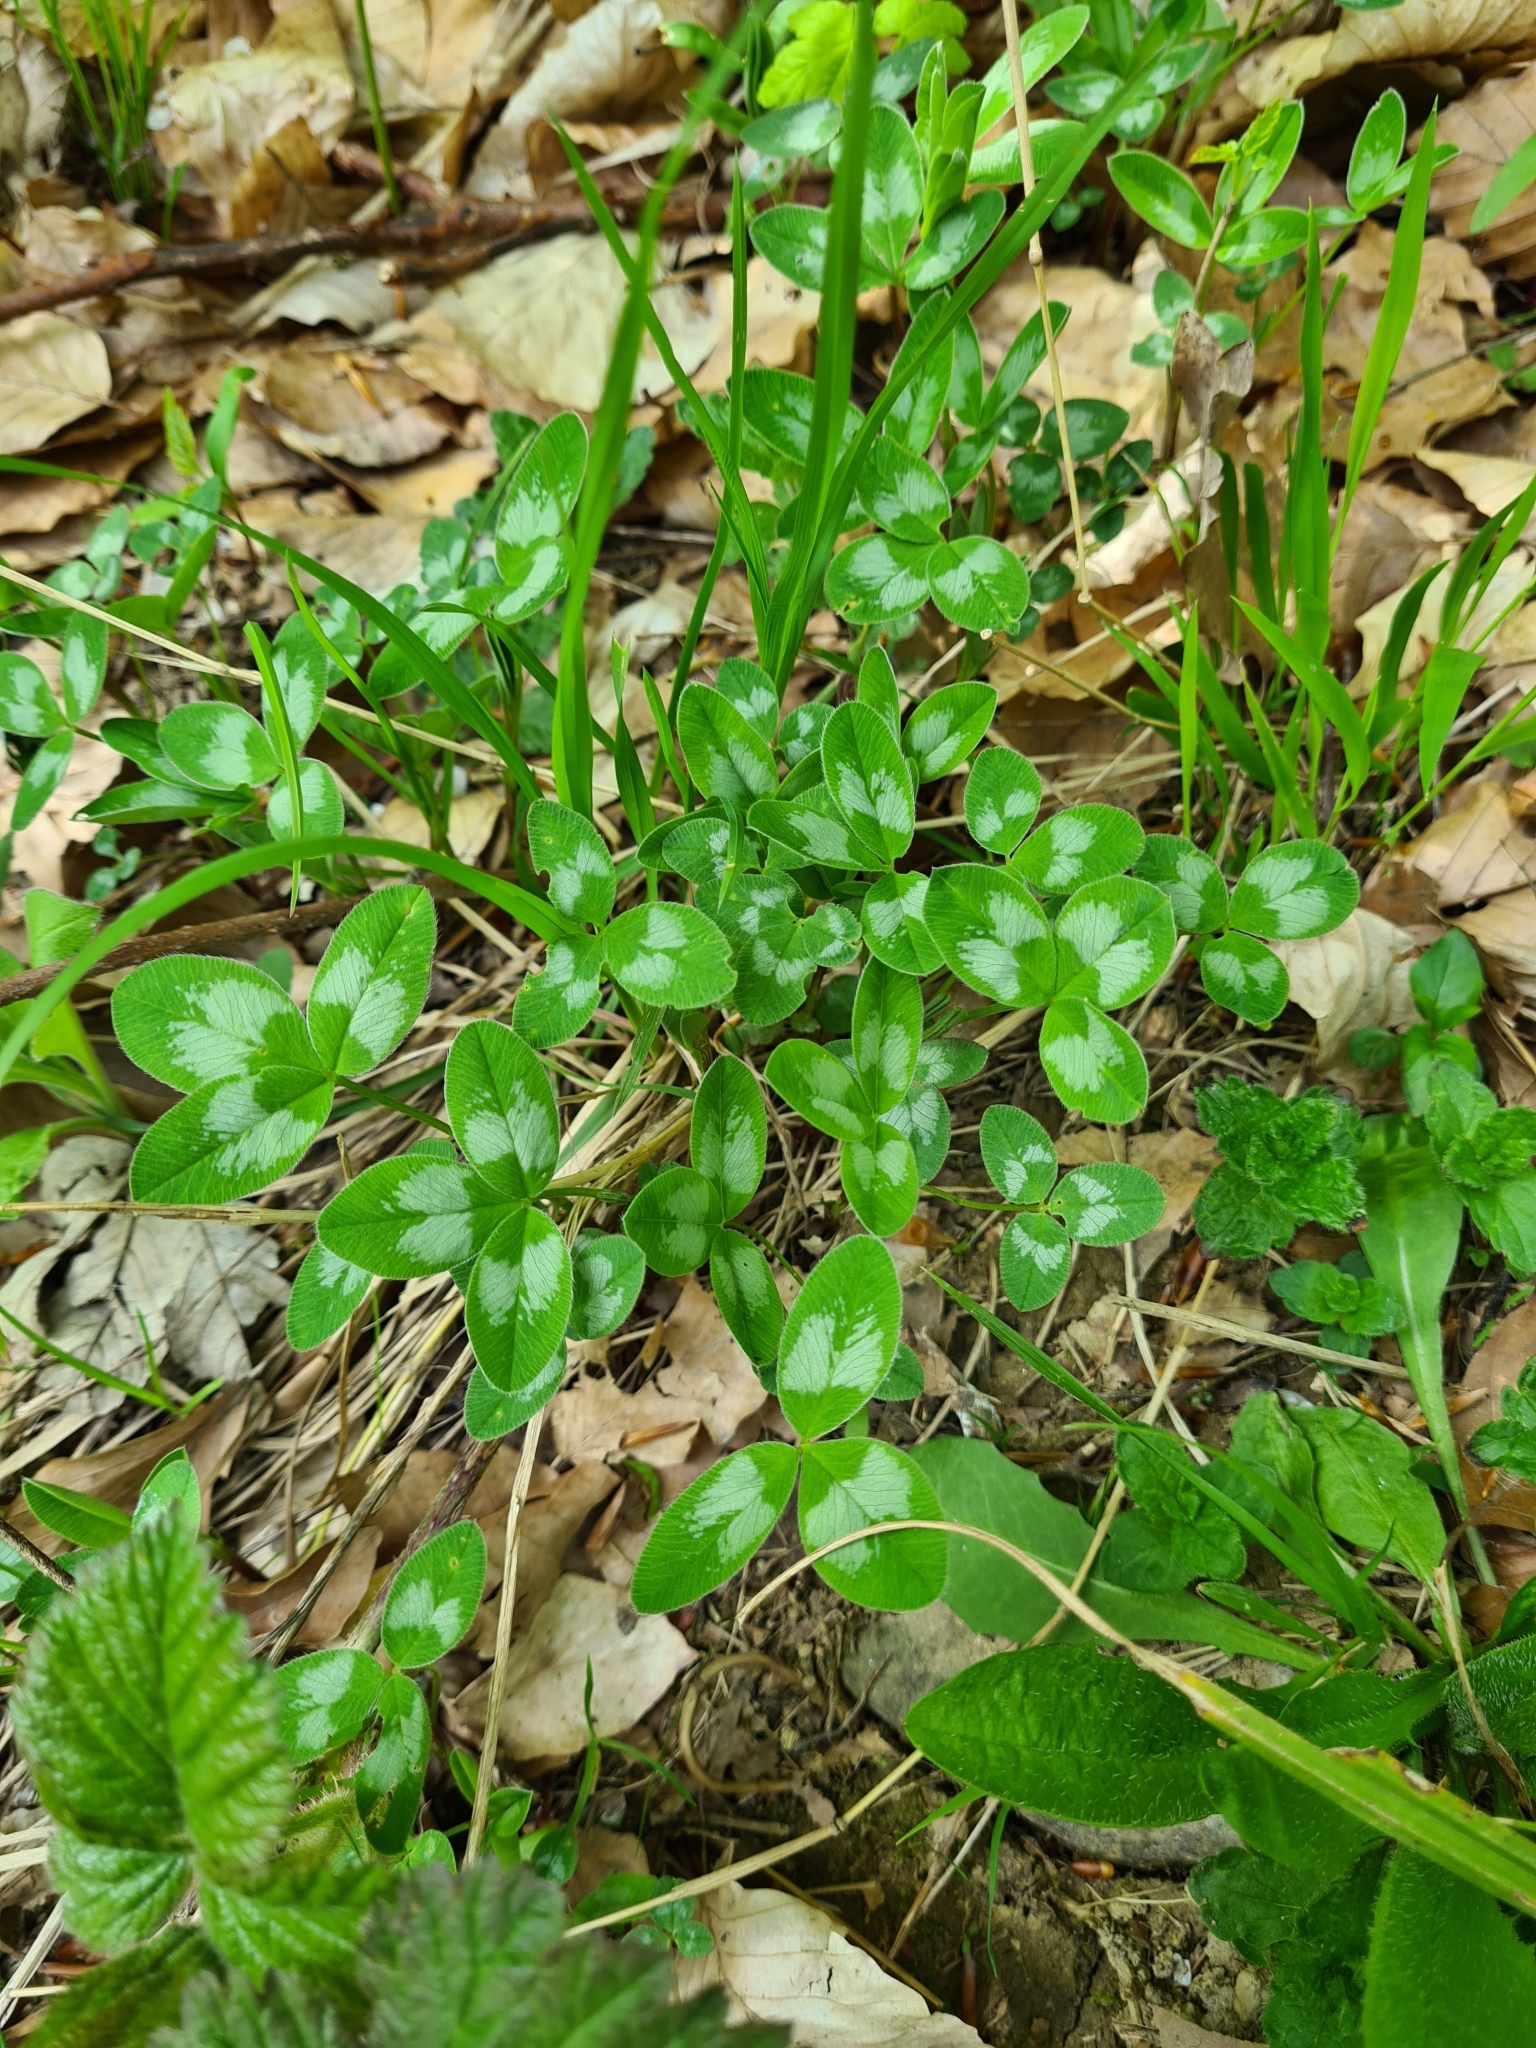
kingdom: Plantae
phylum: Tracheophyta
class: Magnoliopsida
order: Fabales
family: Fabaceae
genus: Trifolium
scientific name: Trifolium pratense
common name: Red clover
